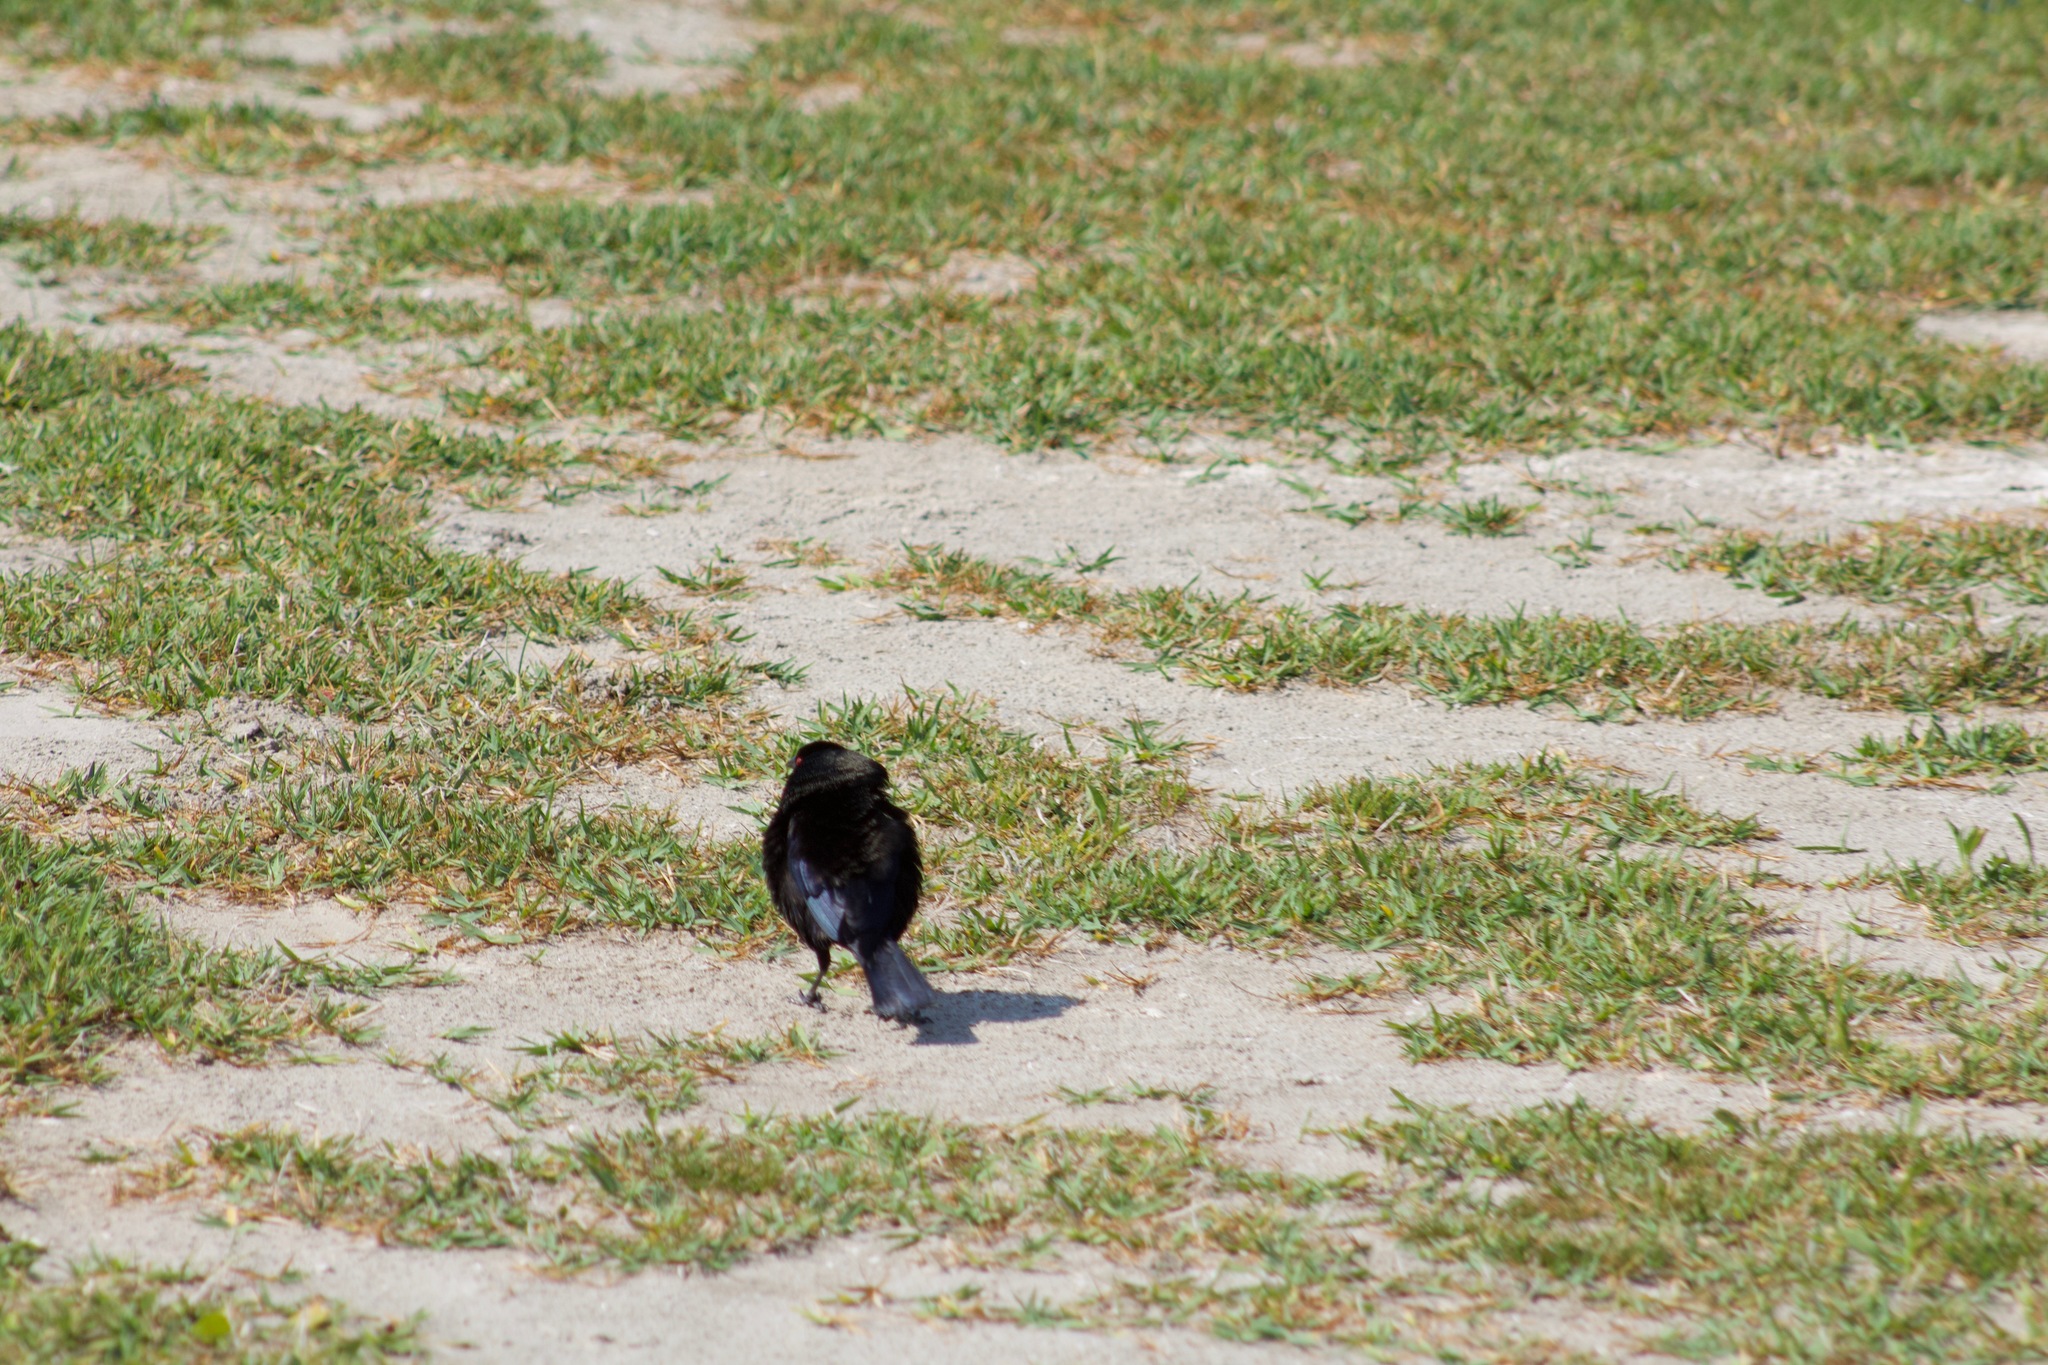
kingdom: Animalia
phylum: Chordata
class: Aves
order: Passeriformes
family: Icteridae
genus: Molothrus
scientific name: Molothrus aeneus
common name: Bronzed cowbird
